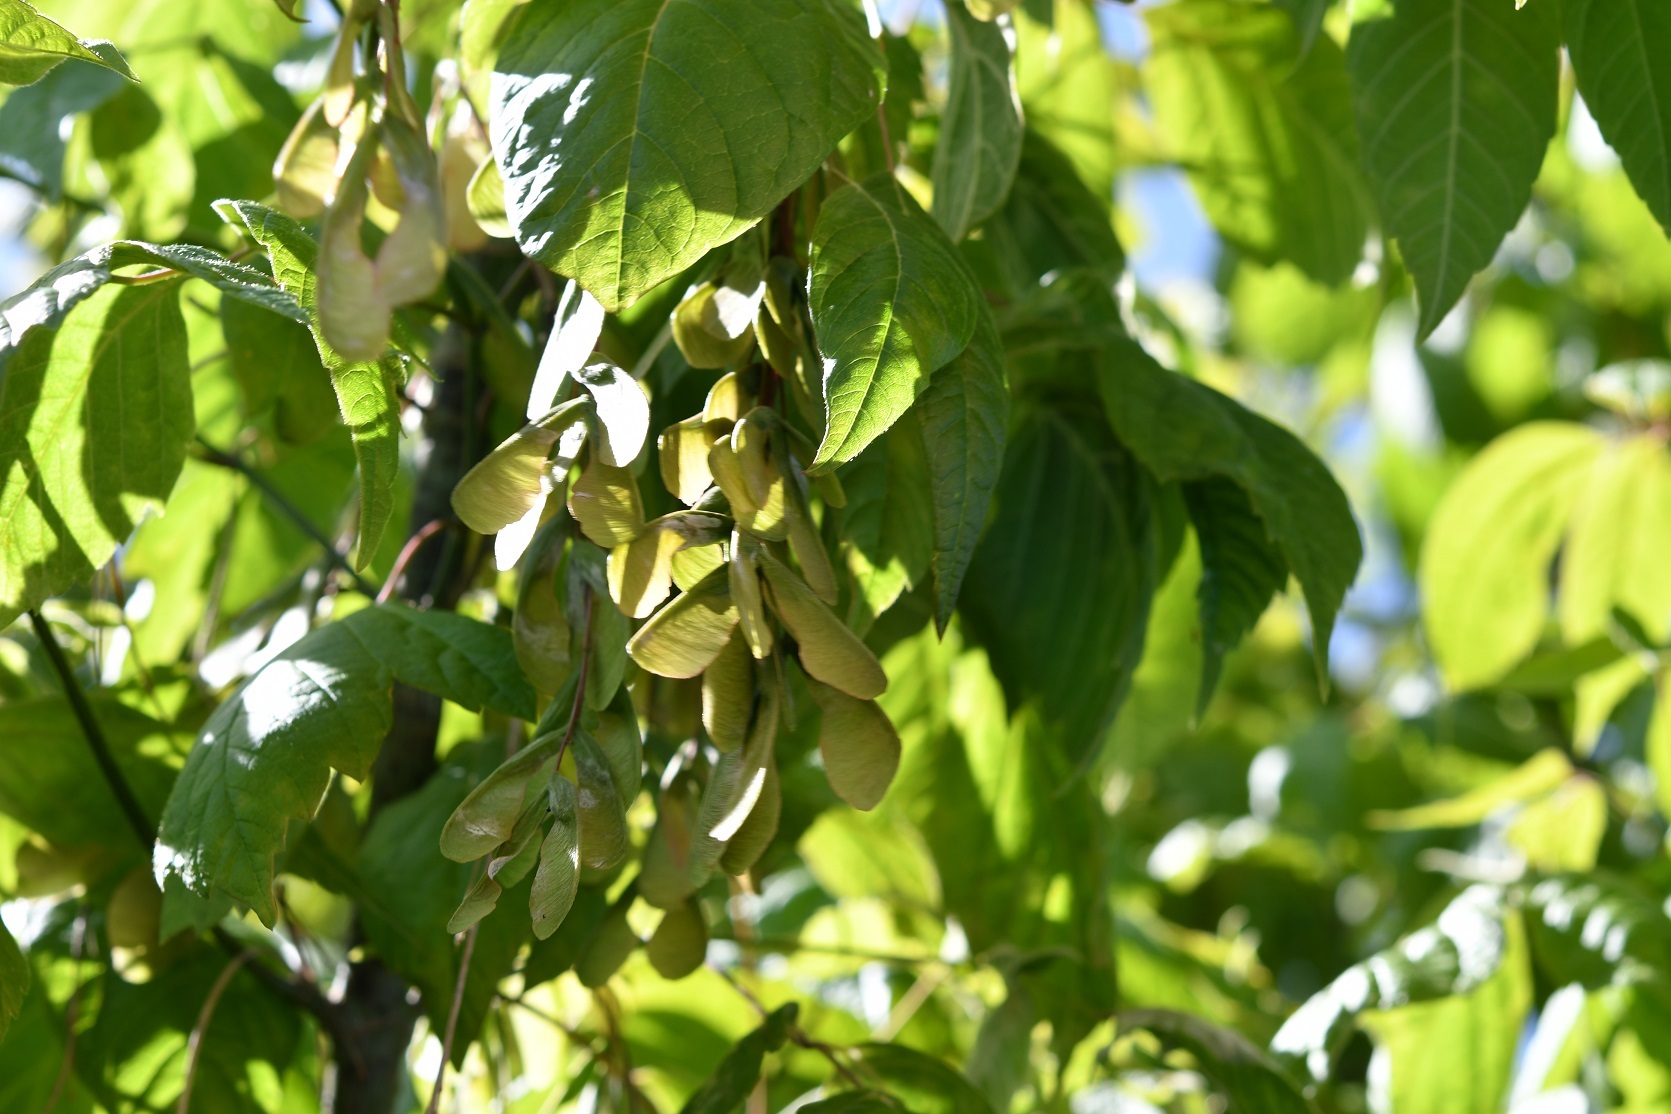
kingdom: Plantae
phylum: Tracheophyta
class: Magnoliopsida
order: Sapindales
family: Sapindaceae
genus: Acer
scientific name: Acer negundo
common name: Ashleaf maple
